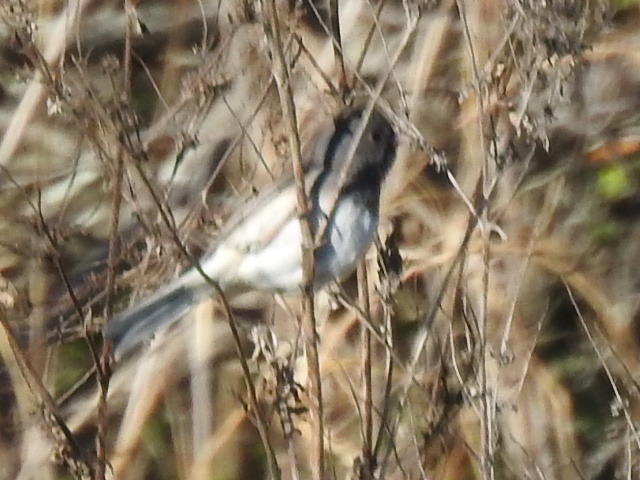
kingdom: Animalia
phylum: Chordata
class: Aves
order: Passeriformes
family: Passerellidae
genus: Junco
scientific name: Junco hyemalis
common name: Dark-eyed junco
